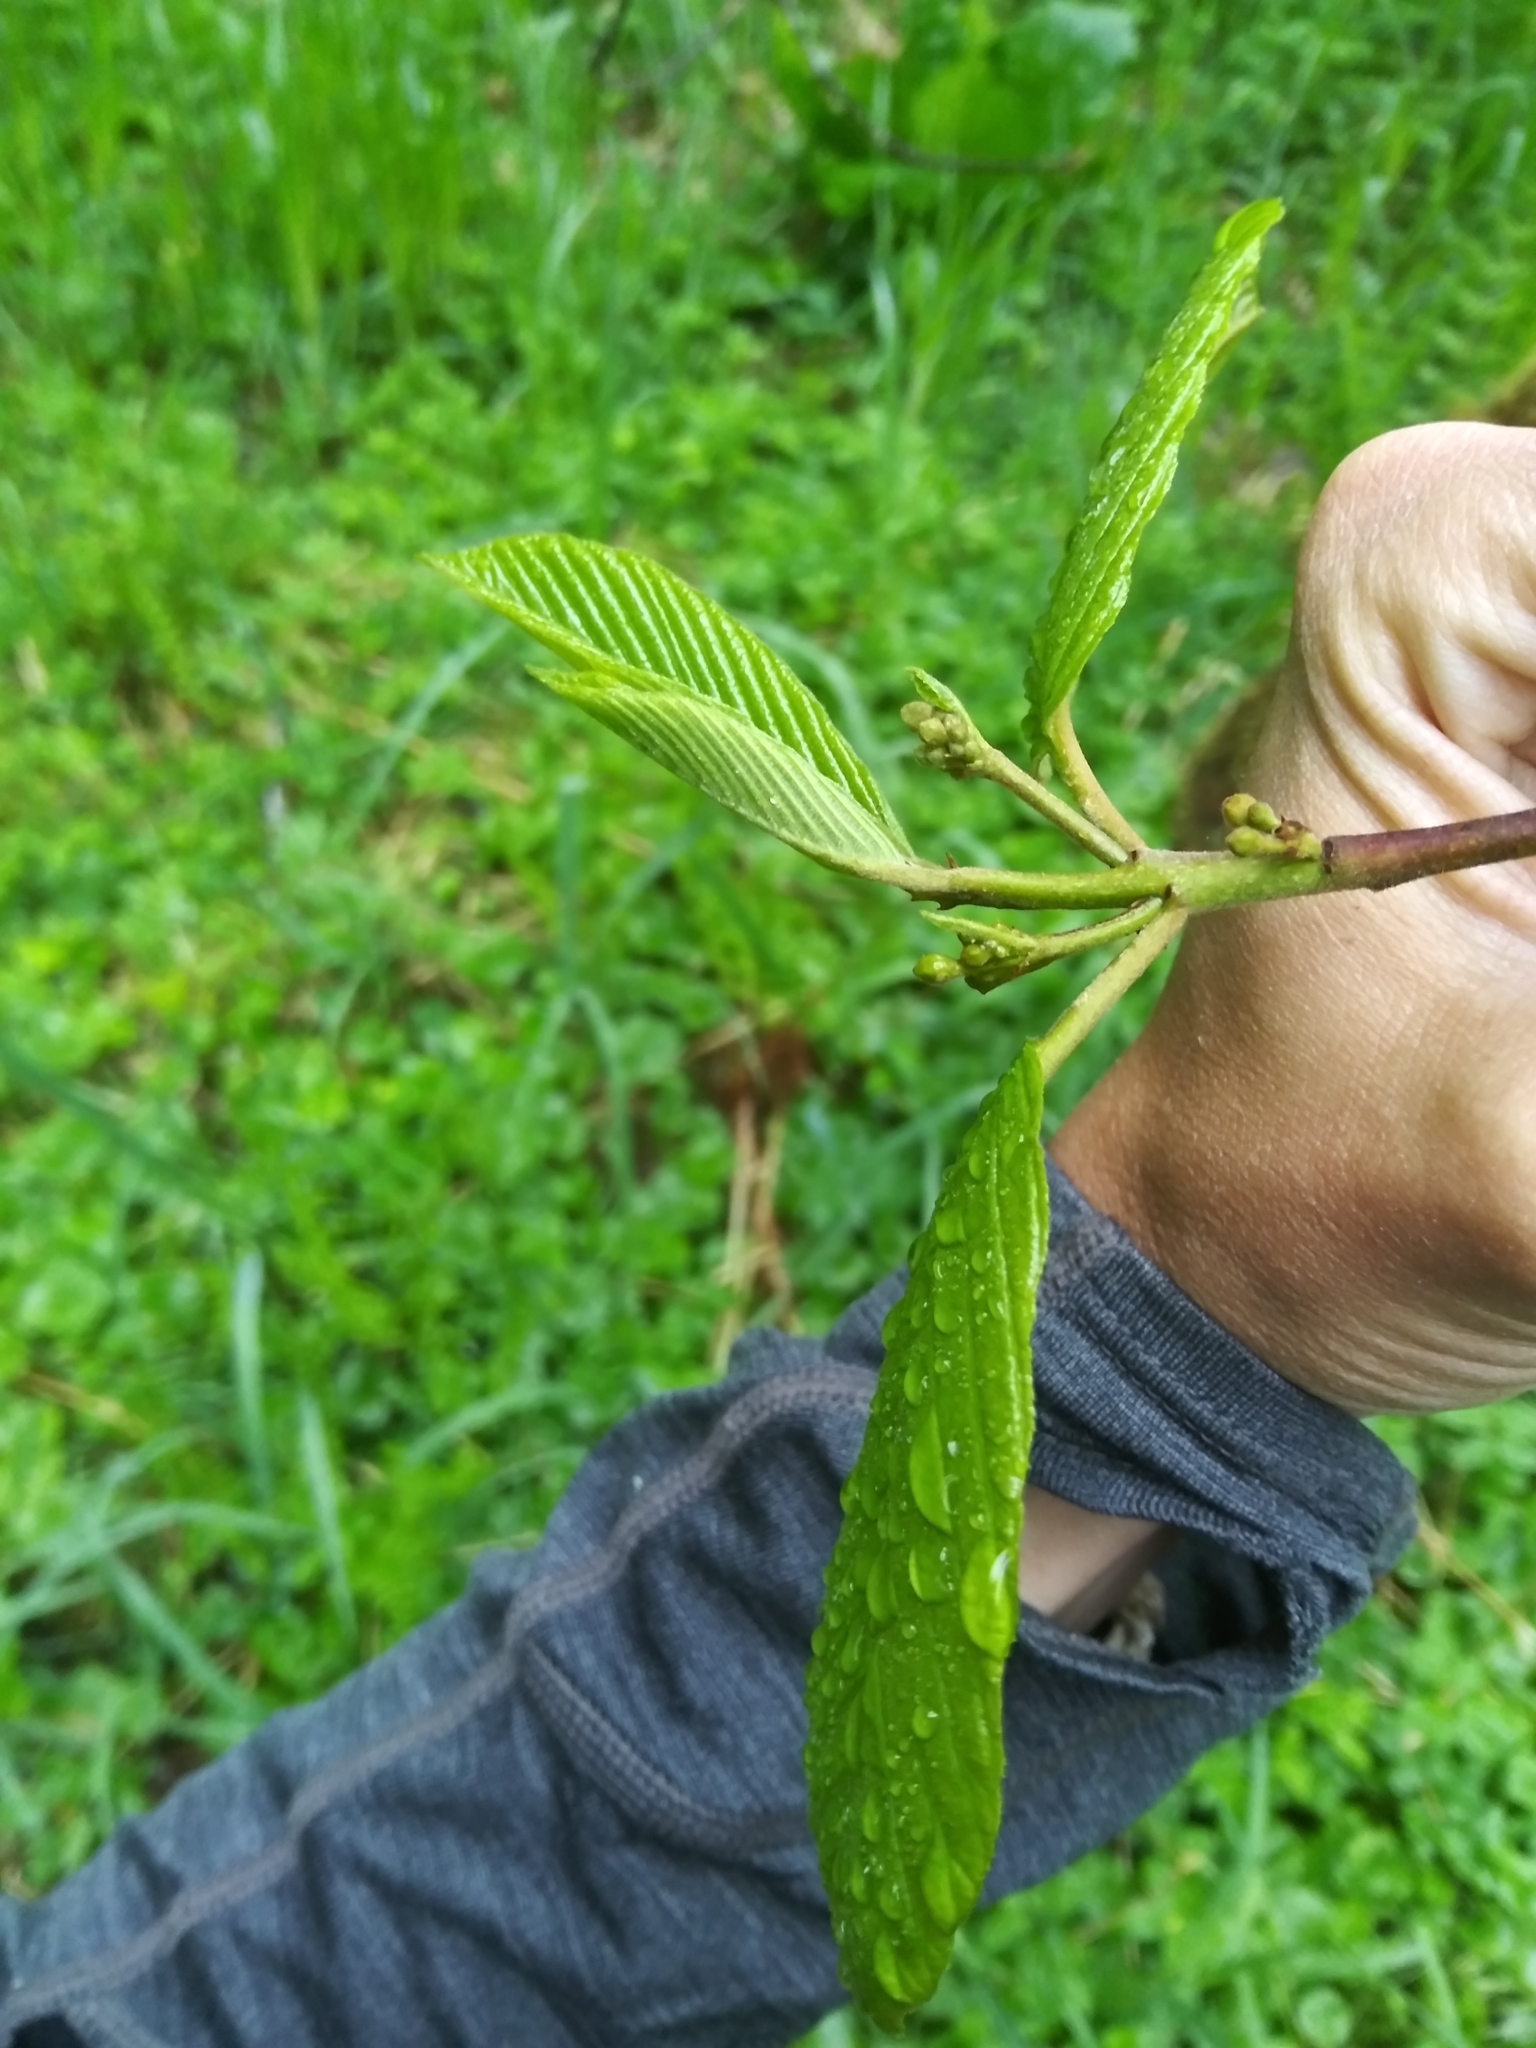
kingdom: Plantae
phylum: Tracheophyta
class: Magnoliopsida
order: Rosales
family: Rhamnaceae
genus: Frangula
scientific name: Frangula purshiana
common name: Cascara buckthorn
